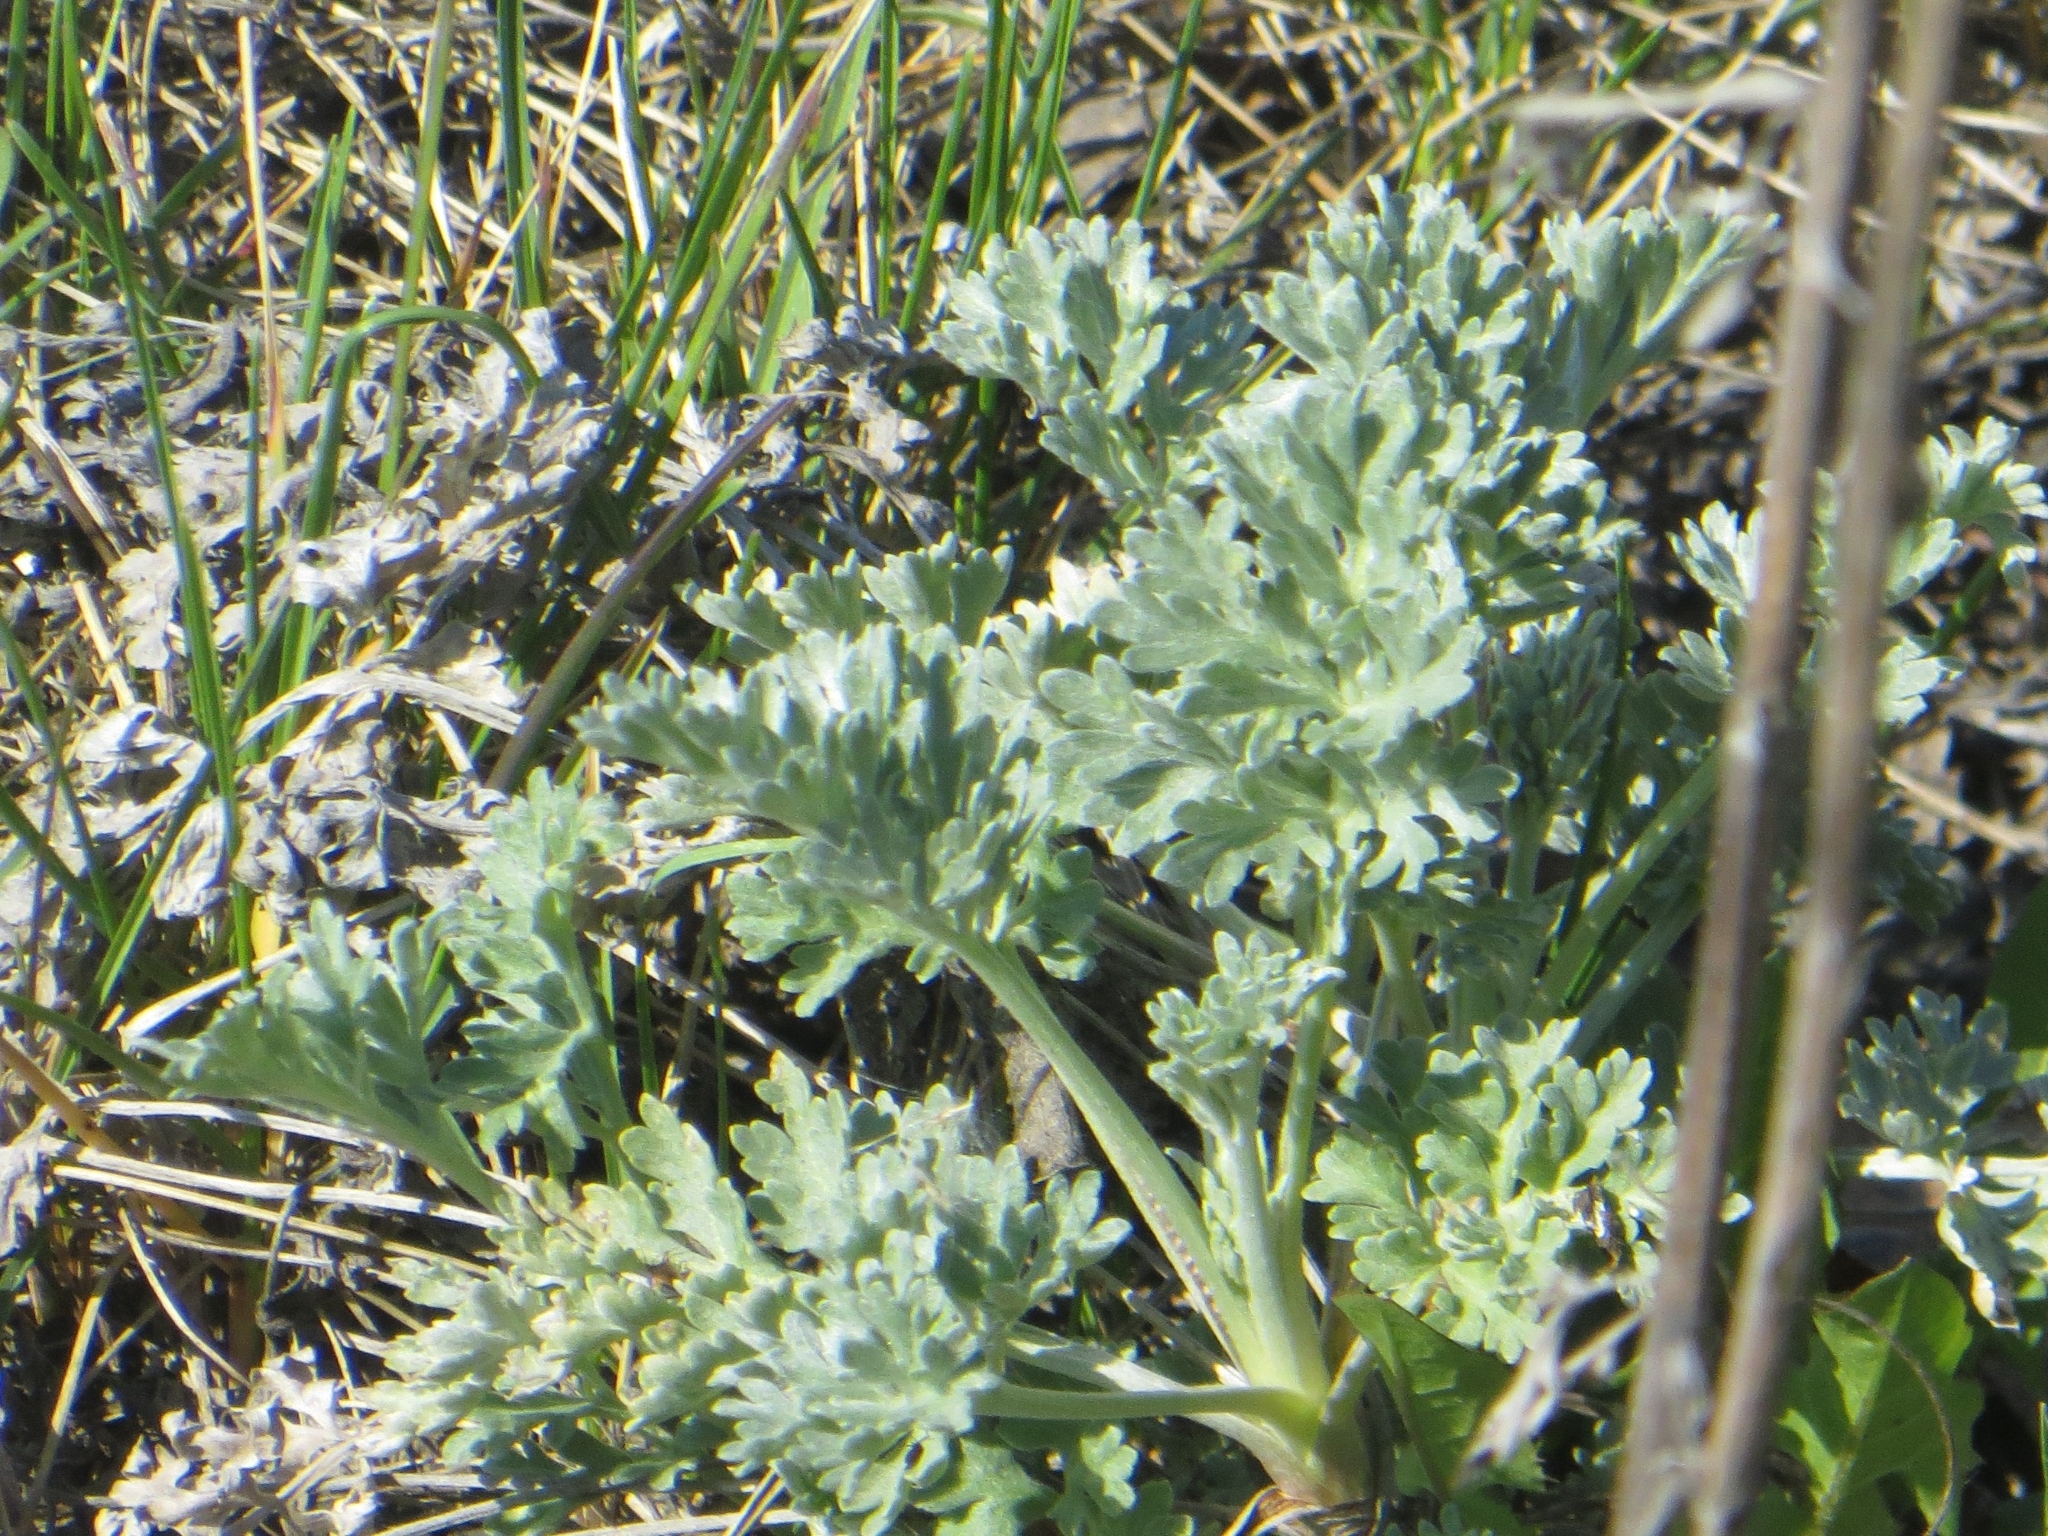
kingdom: Plantae
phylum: Tracheophyta
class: Magnoliopsida
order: Asterales
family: Asteraceae
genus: Artemisia
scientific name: Artemisia absinthium
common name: Wormwood
